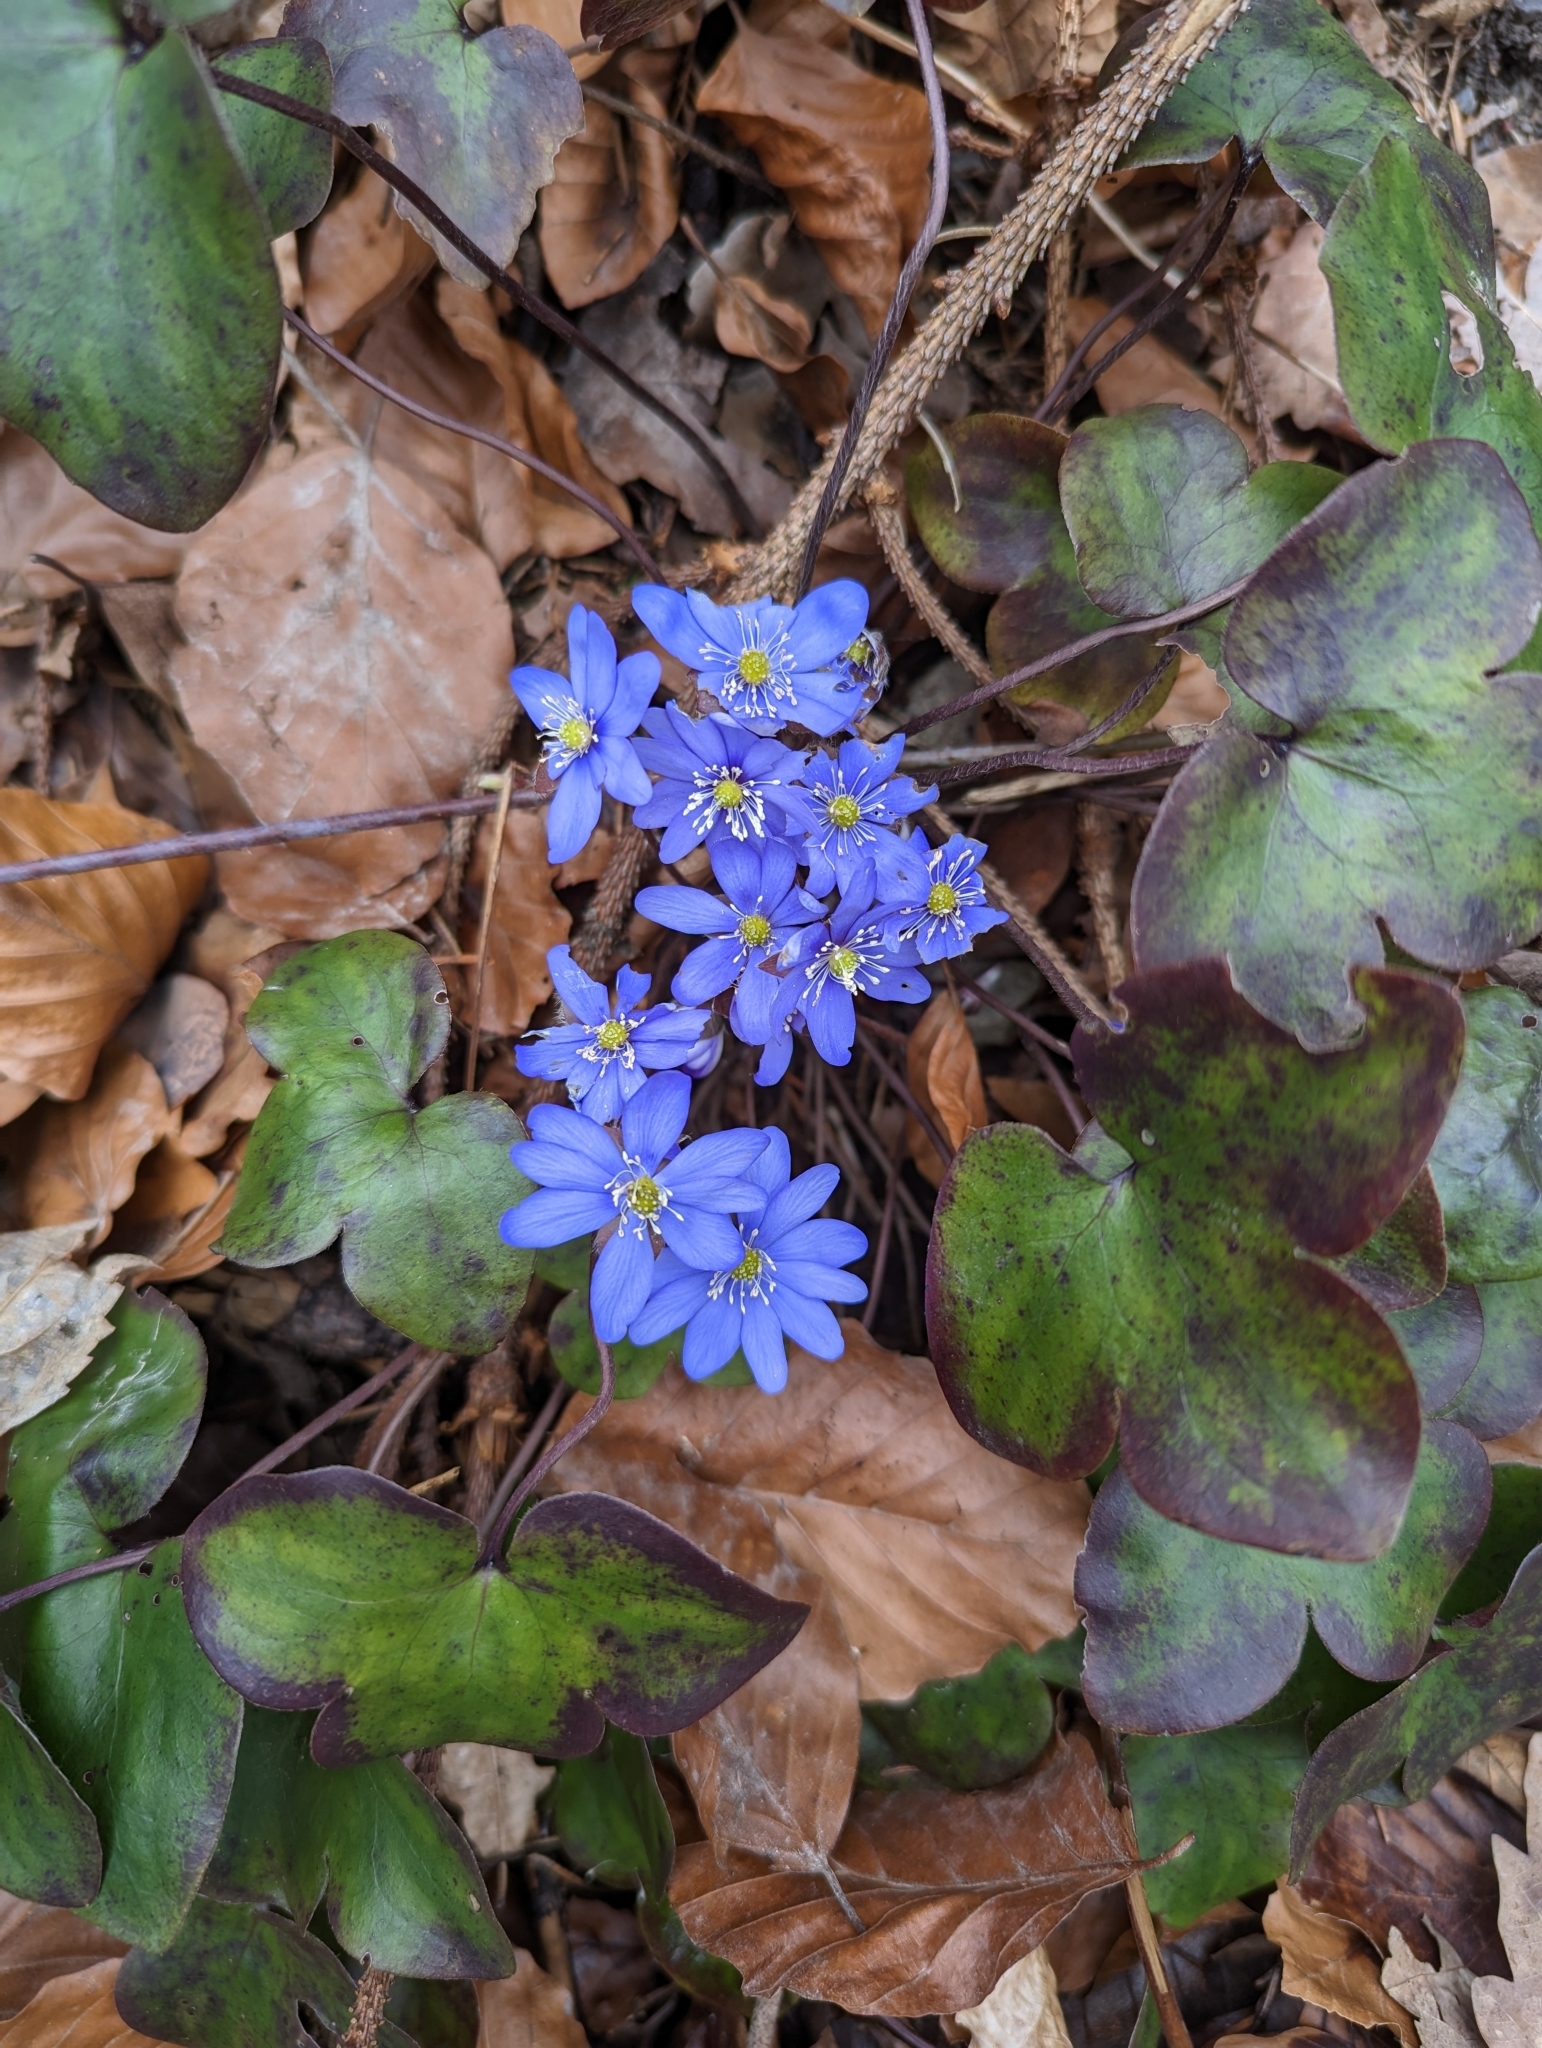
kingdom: Plantae
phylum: Tracheophyta
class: Magnoliopsida
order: Ranunculales
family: Ranunculaceae
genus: Hepatica
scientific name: Hepatica nobilis
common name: Liverleaf
